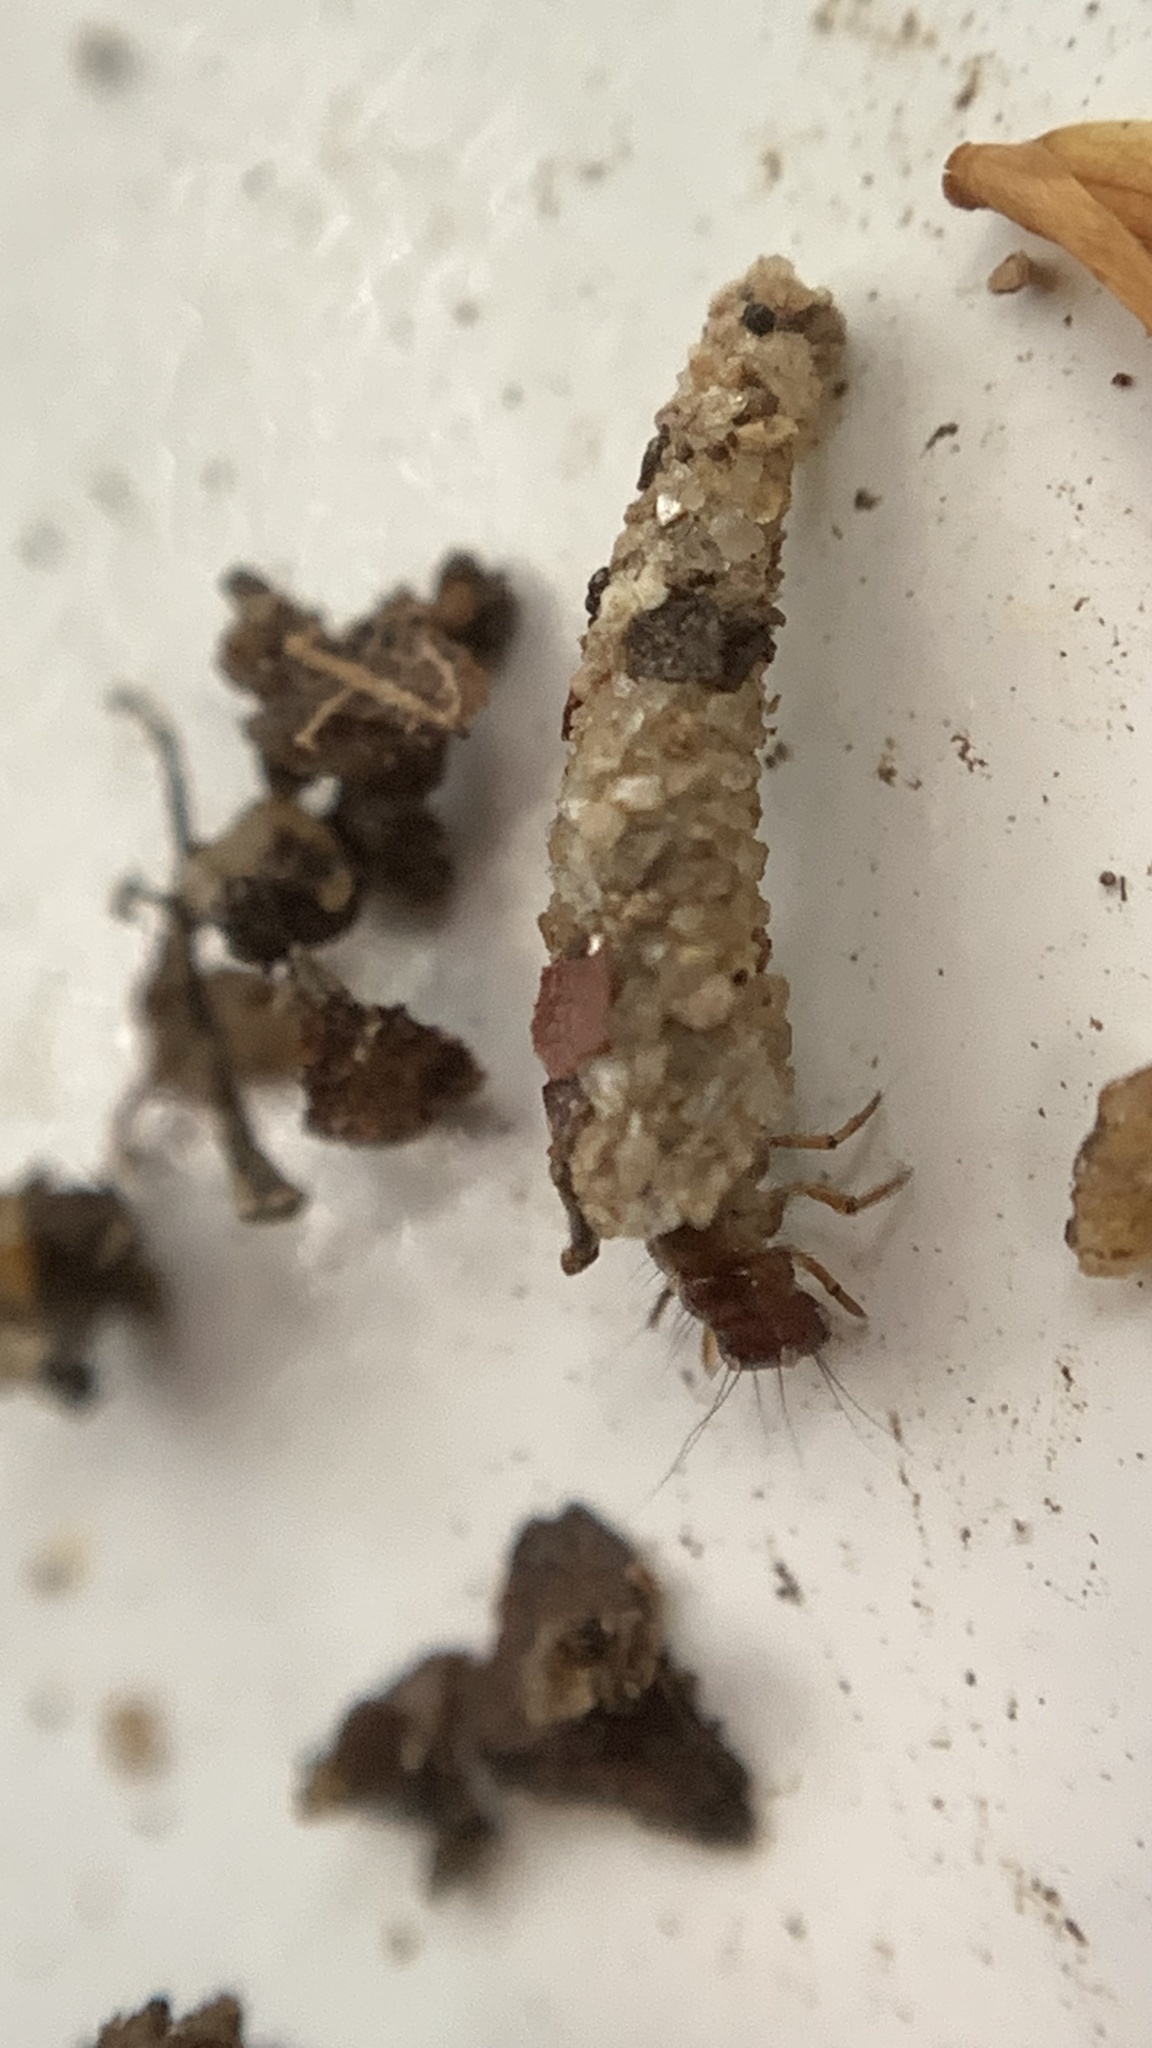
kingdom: Animalia
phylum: Arthropoda
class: Insecta
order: Trichoptera
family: Limnephilidae
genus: Enoicyla
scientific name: Enoicyla pusilla
